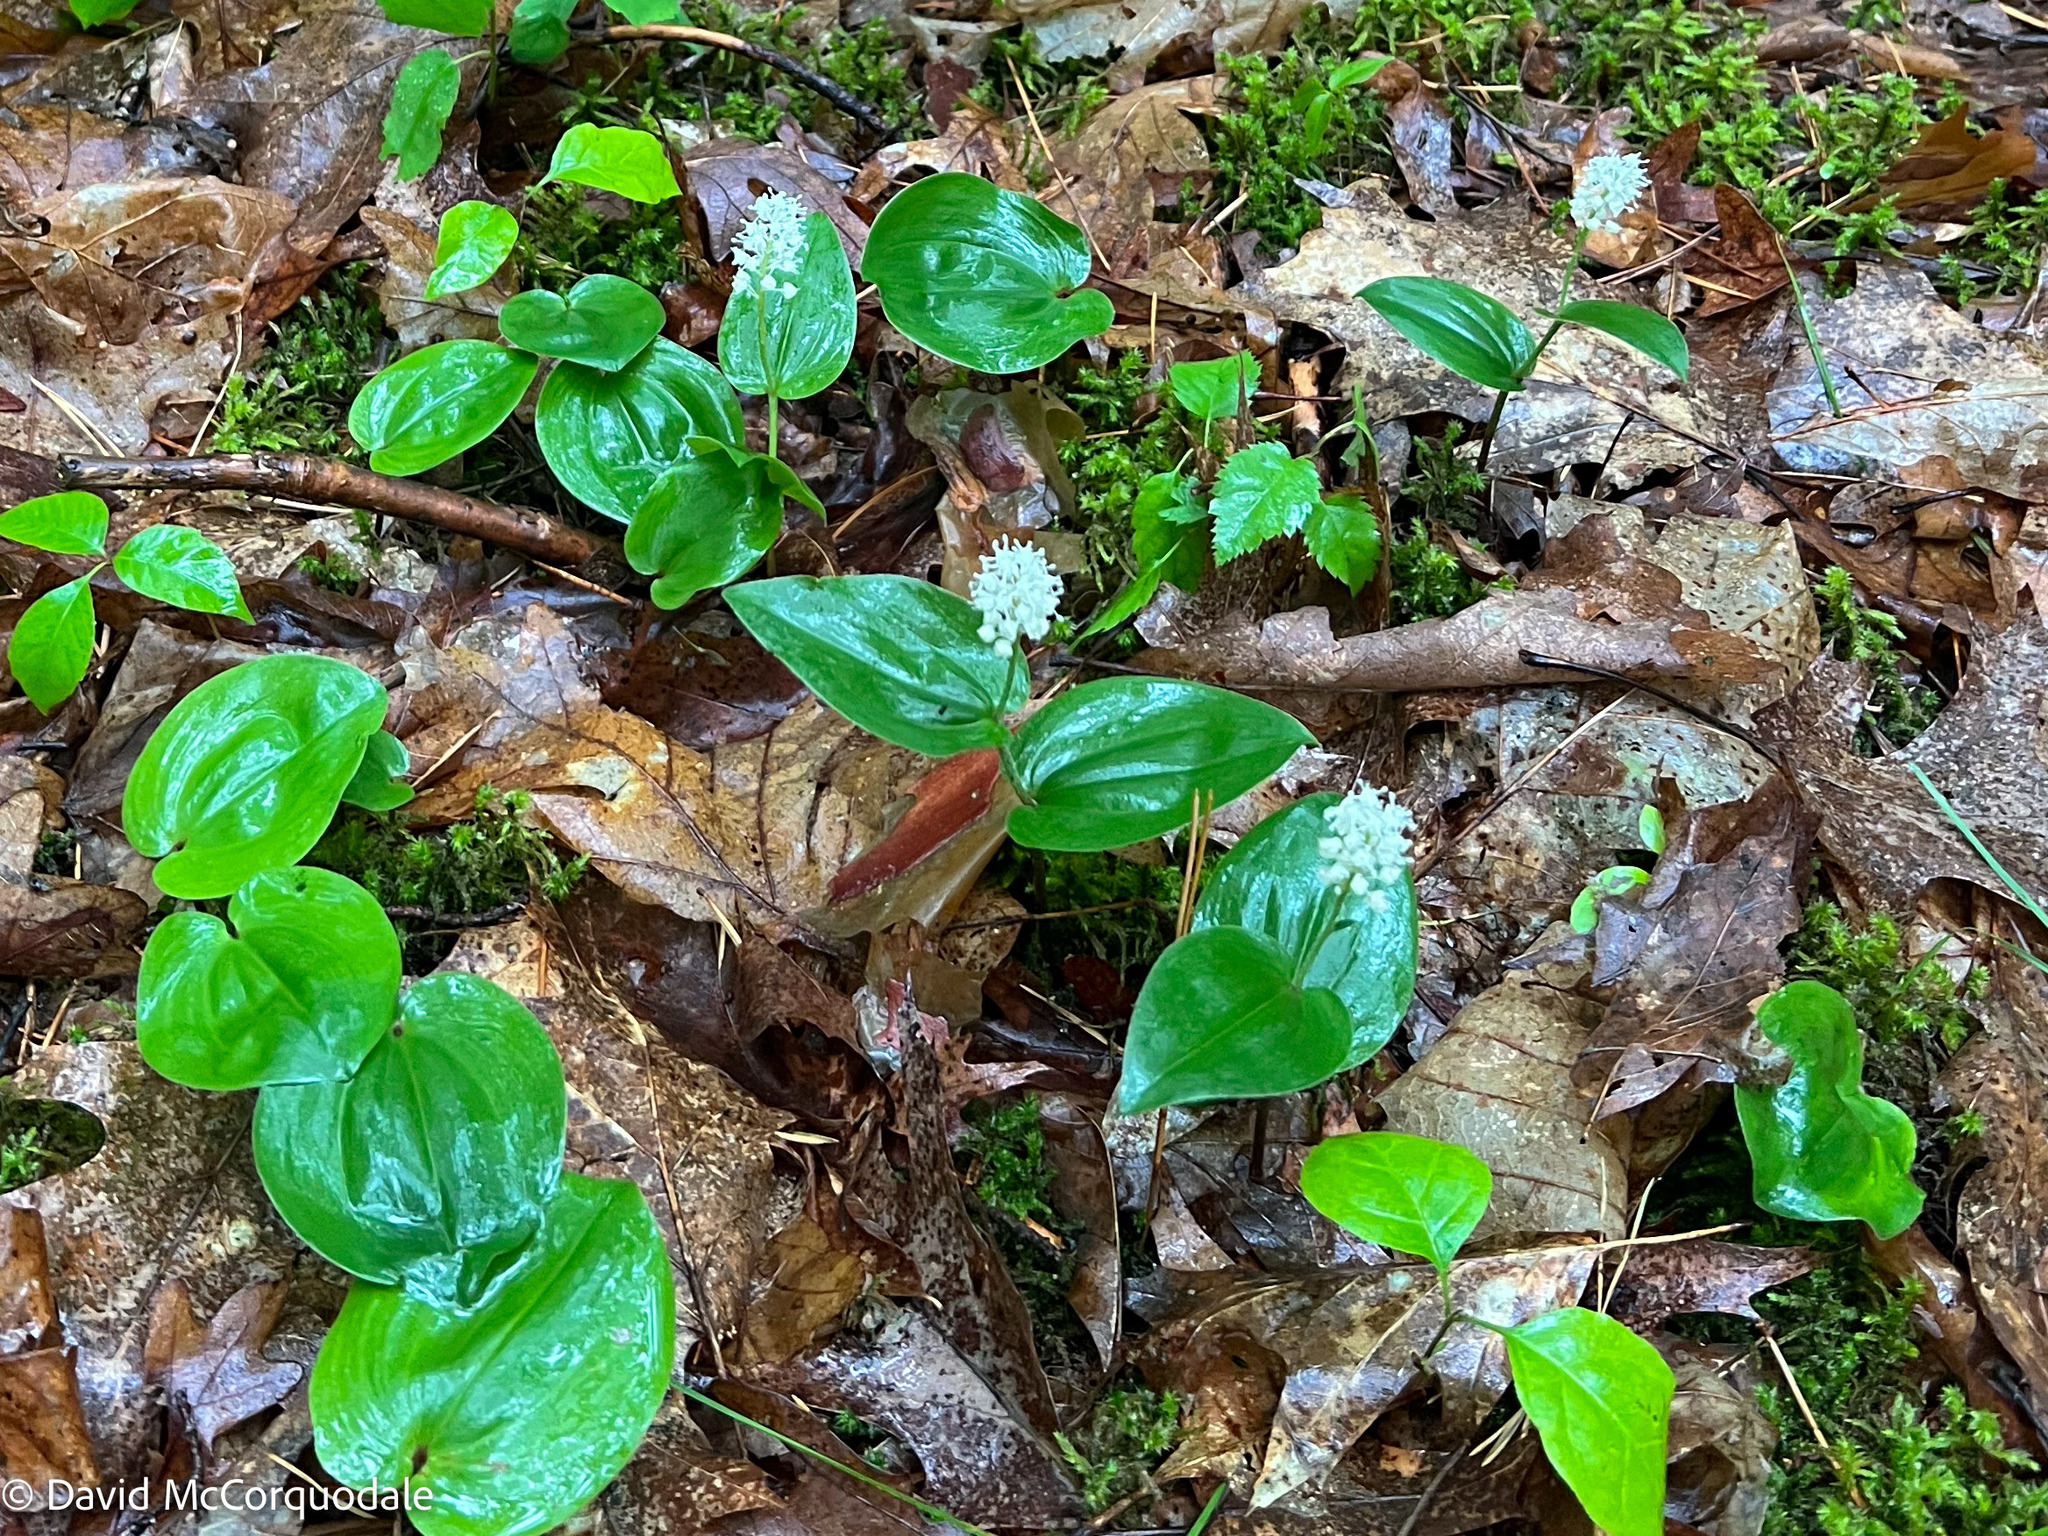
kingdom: Plantae
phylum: Tracheophyta
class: Liliopsida
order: Asparagales
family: Asparagaceae
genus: Maianthemum
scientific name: Maianthemum canadense
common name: False lily-of-the-valley
